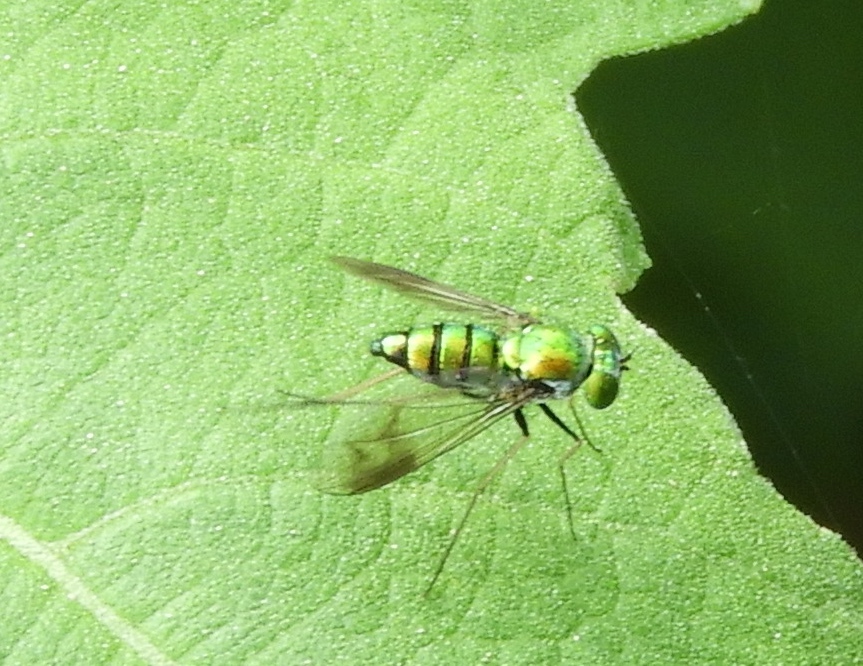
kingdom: Animalia
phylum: Arthropoda
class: Insecta
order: Diptera
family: Dolichopodidae
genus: Condylostylus
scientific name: Condylostylus
